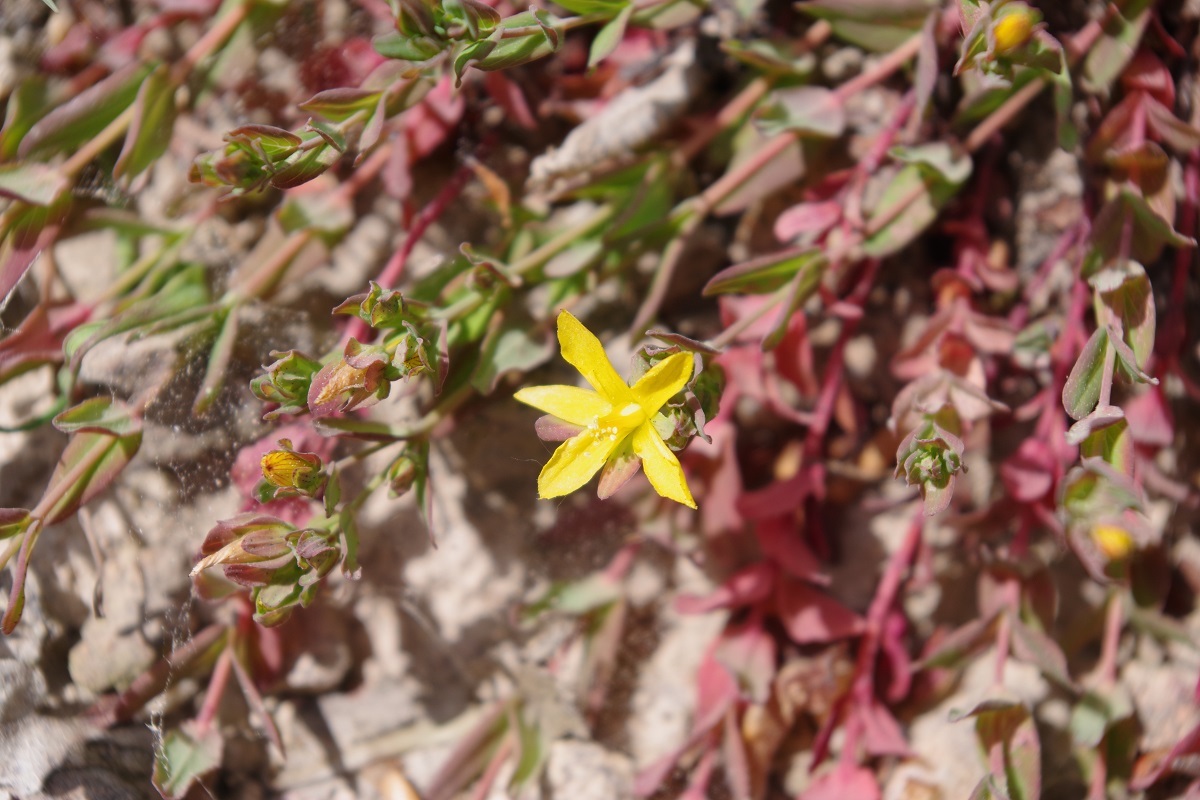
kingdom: Plantae
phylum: Tracheophyta
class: Magnoliopsida
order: Malpighiales
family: Hypericaceae
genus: Hypericum
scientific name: Hypericum humifusum
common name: Trailing st. john's-wort
